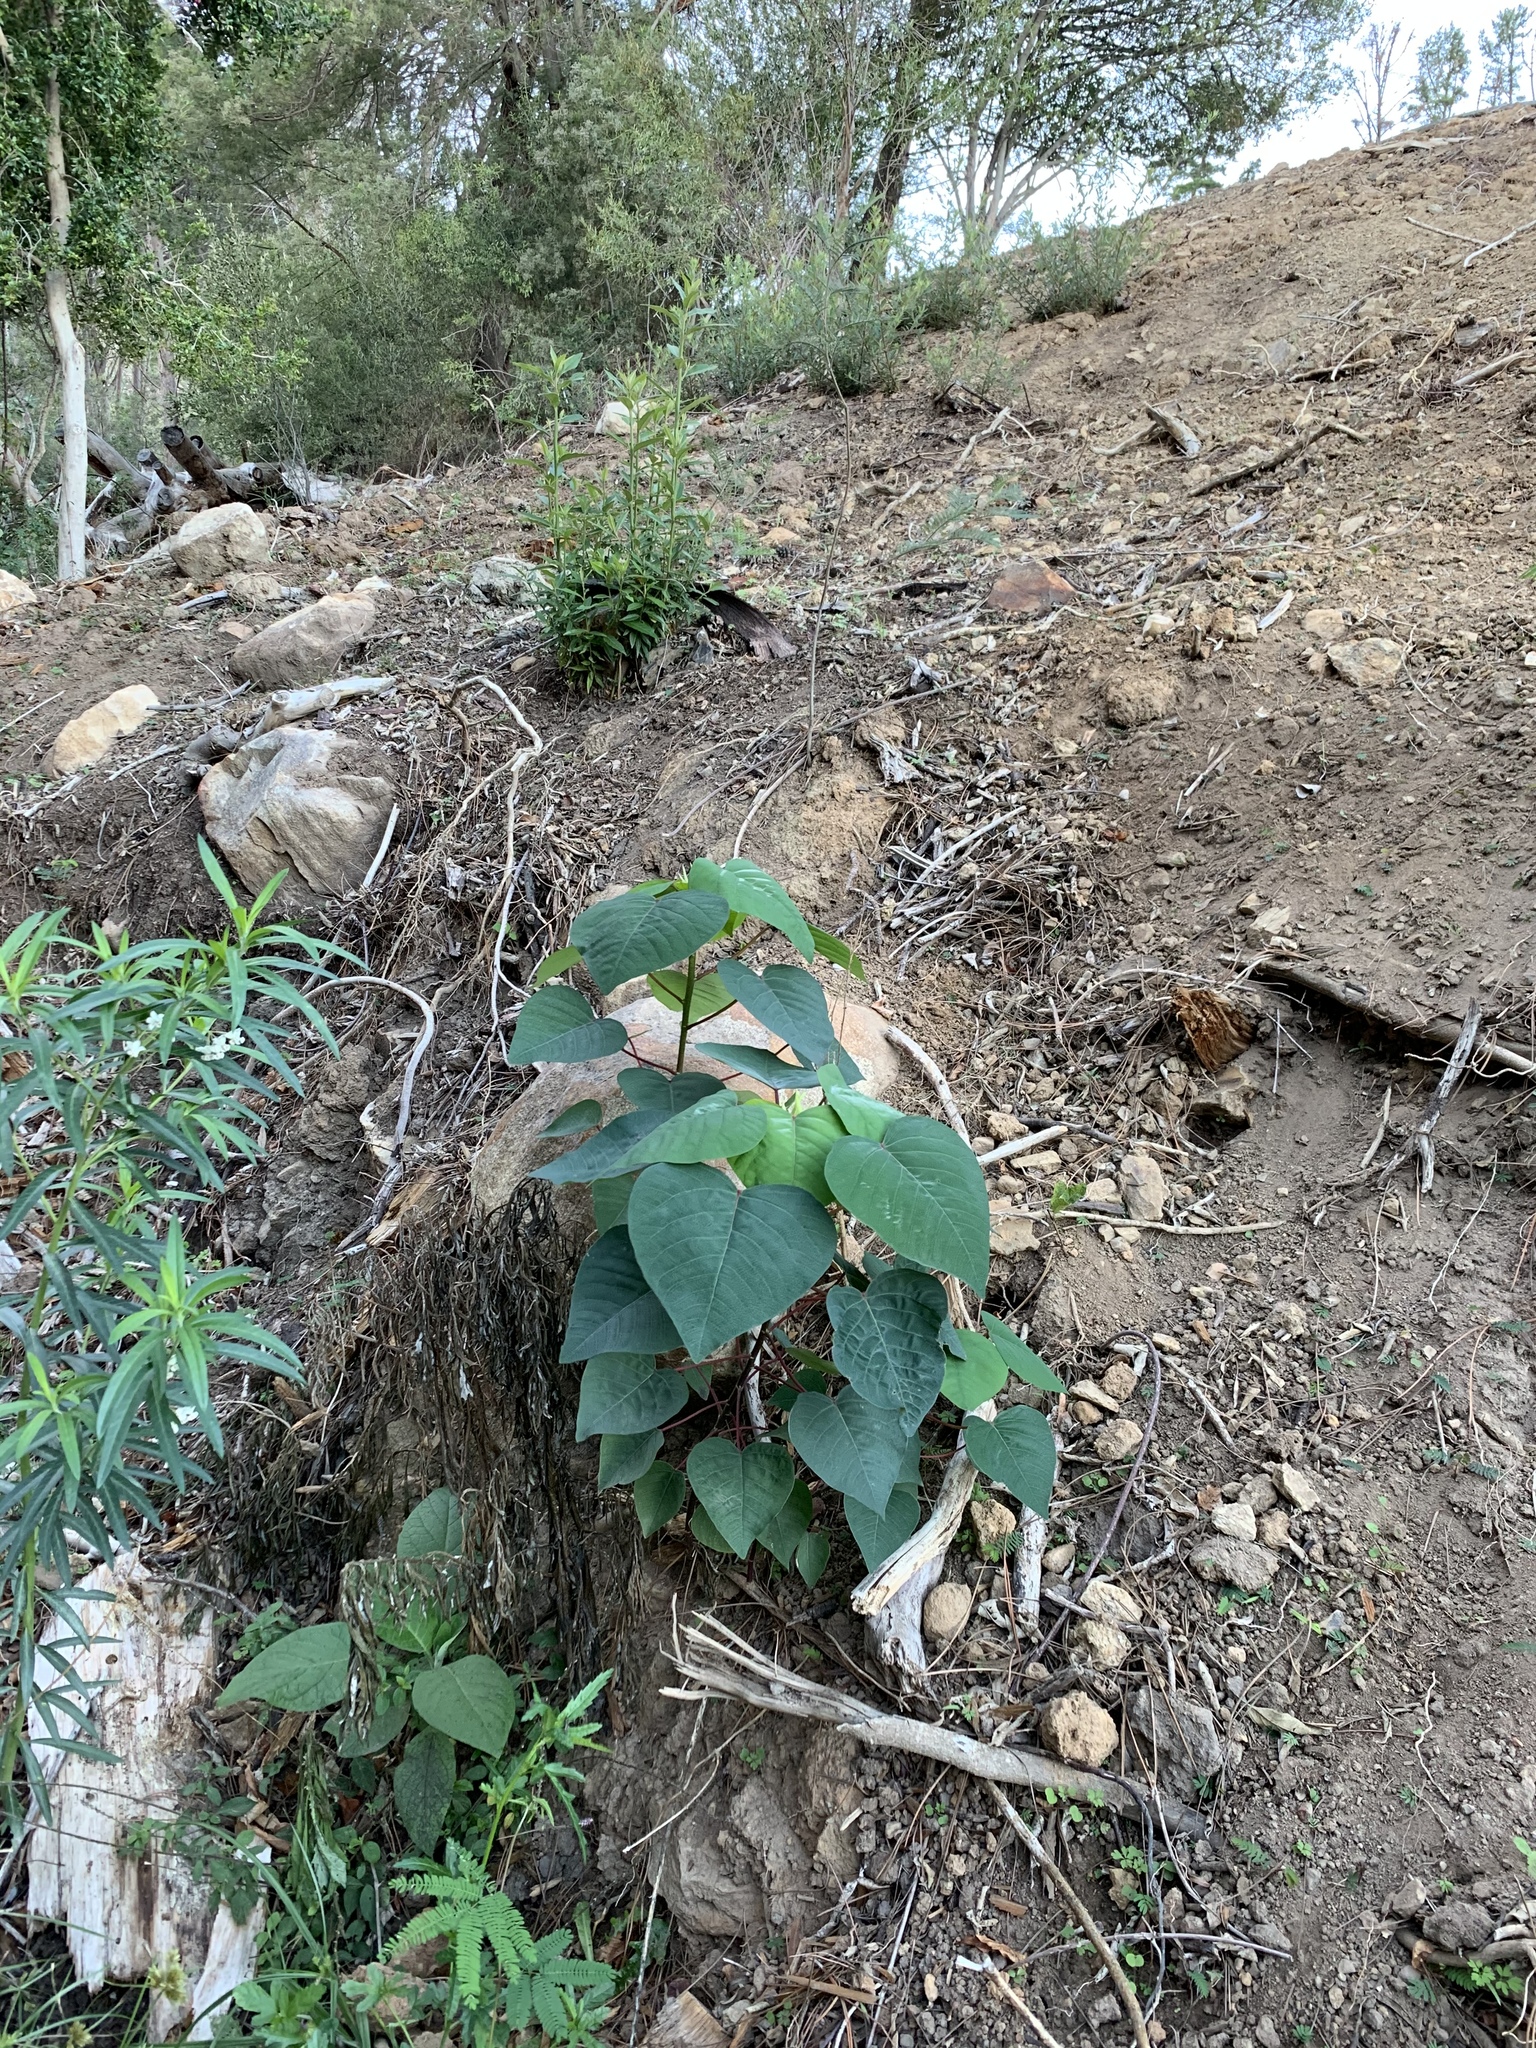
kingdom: Plantae
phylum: Tracheophyta
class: Magnoliopsida
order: Malpighiales
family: Euphorbiaceae
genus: Homalanthus
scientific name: Homalanthus populifolius
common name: Queensland poplar
